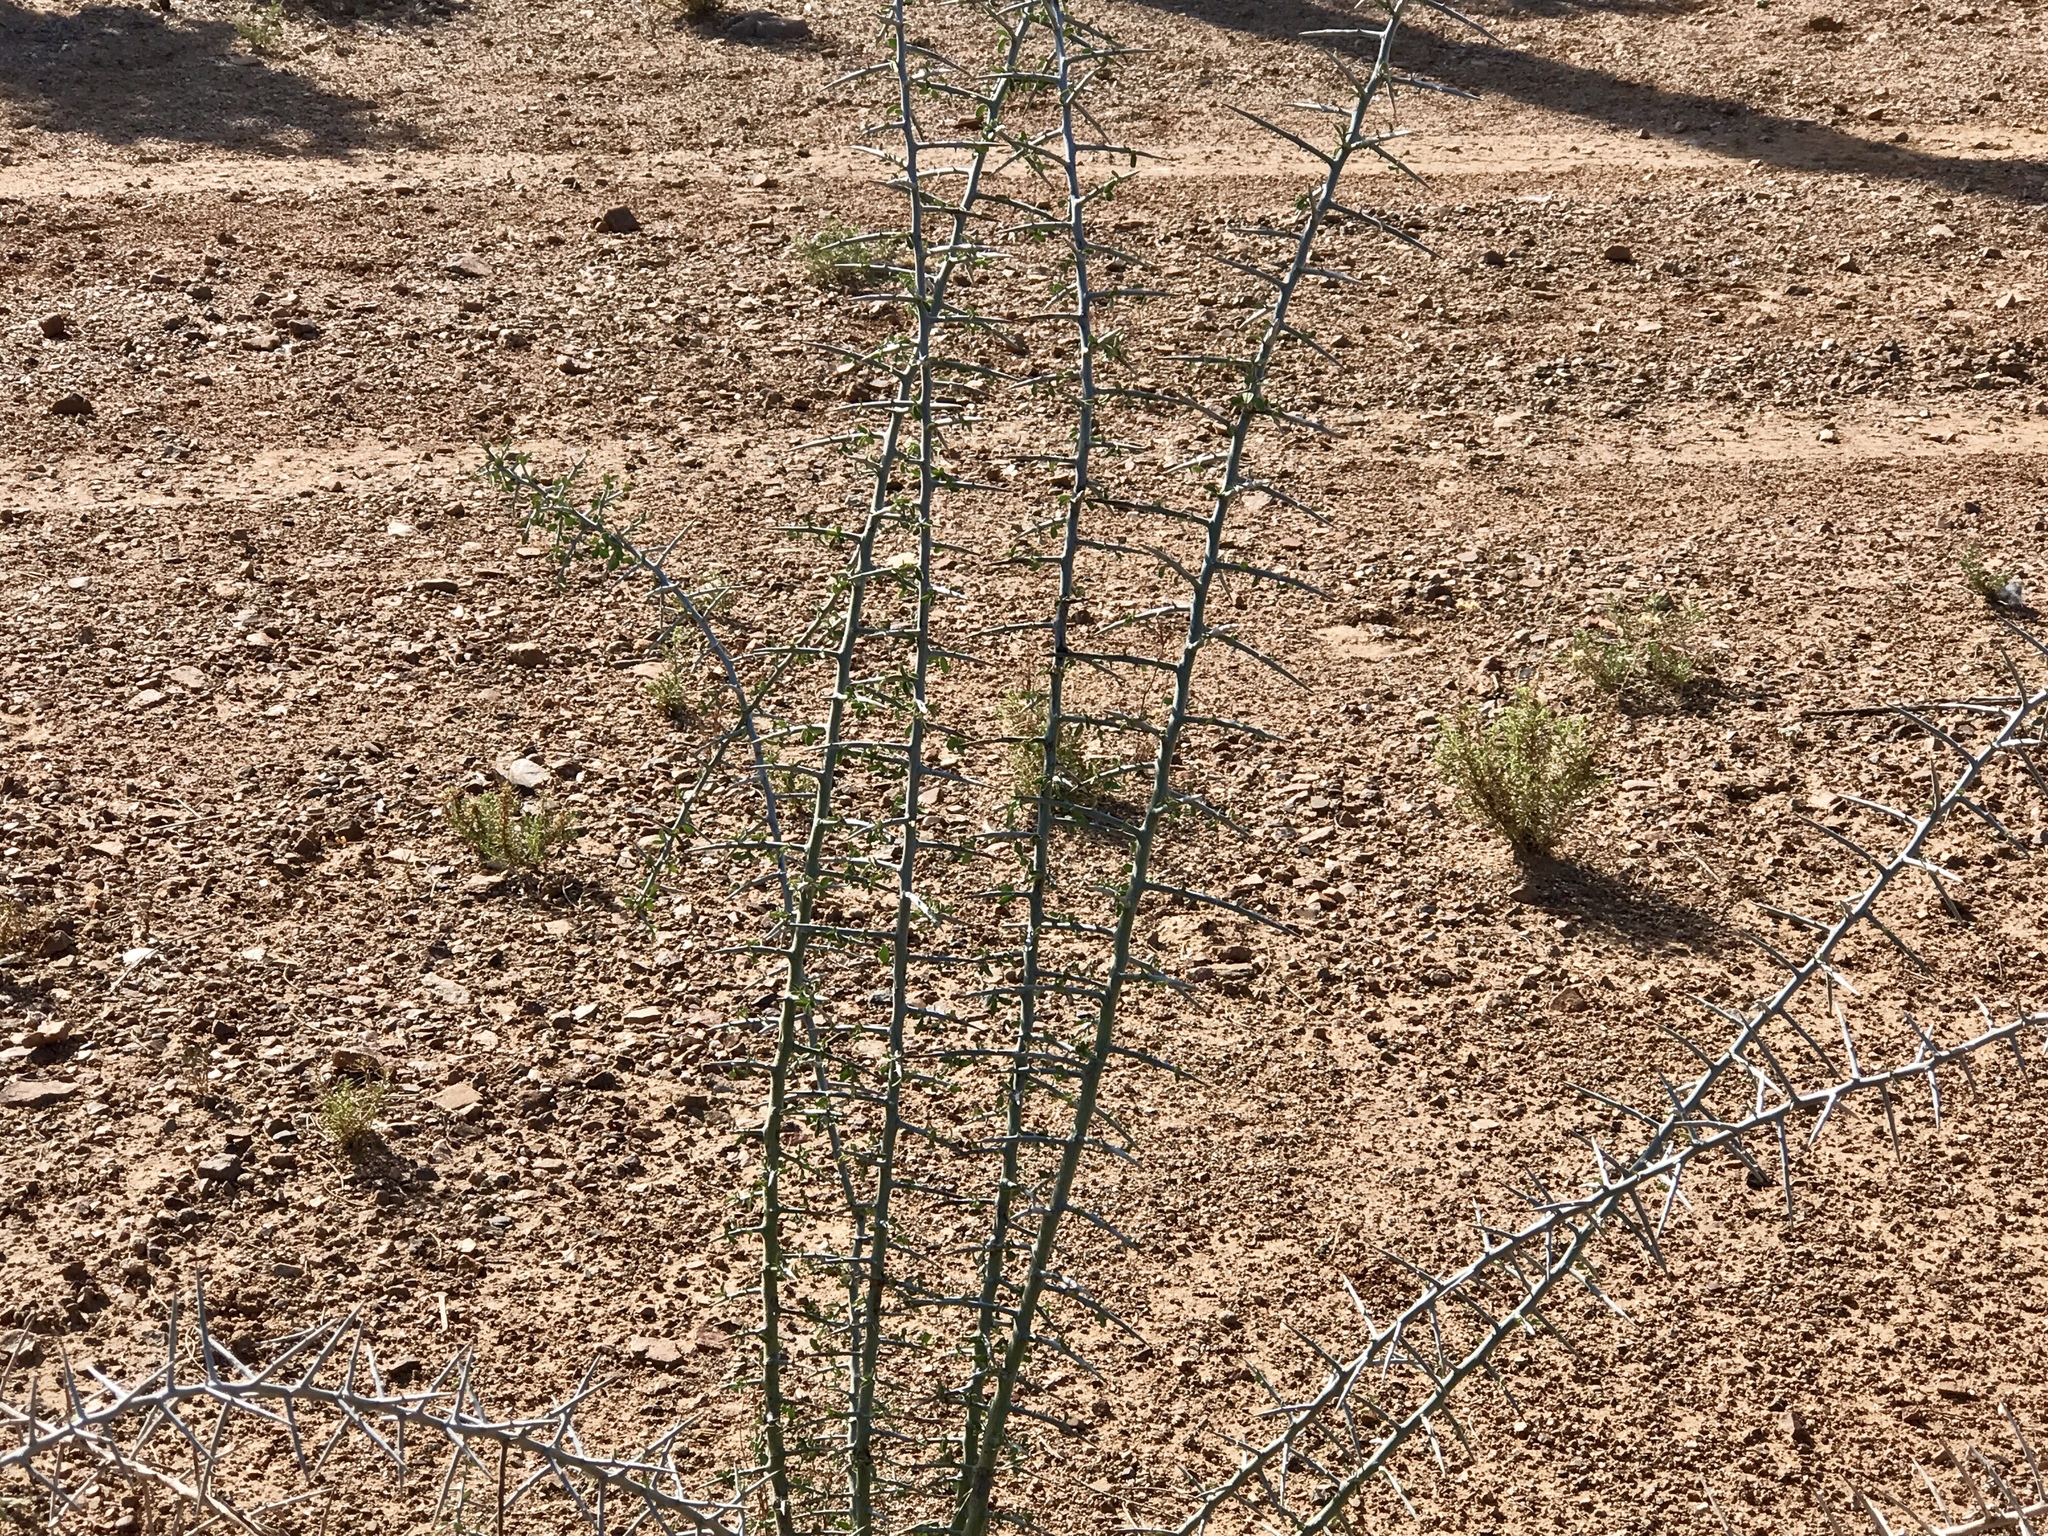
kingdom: Plantae
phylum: Tracheophyta
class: Magnoliopsida
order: Rosales
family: Rhamnaceae
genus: Sarcomphalus
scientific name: Sarcomphalus obtusifolius
